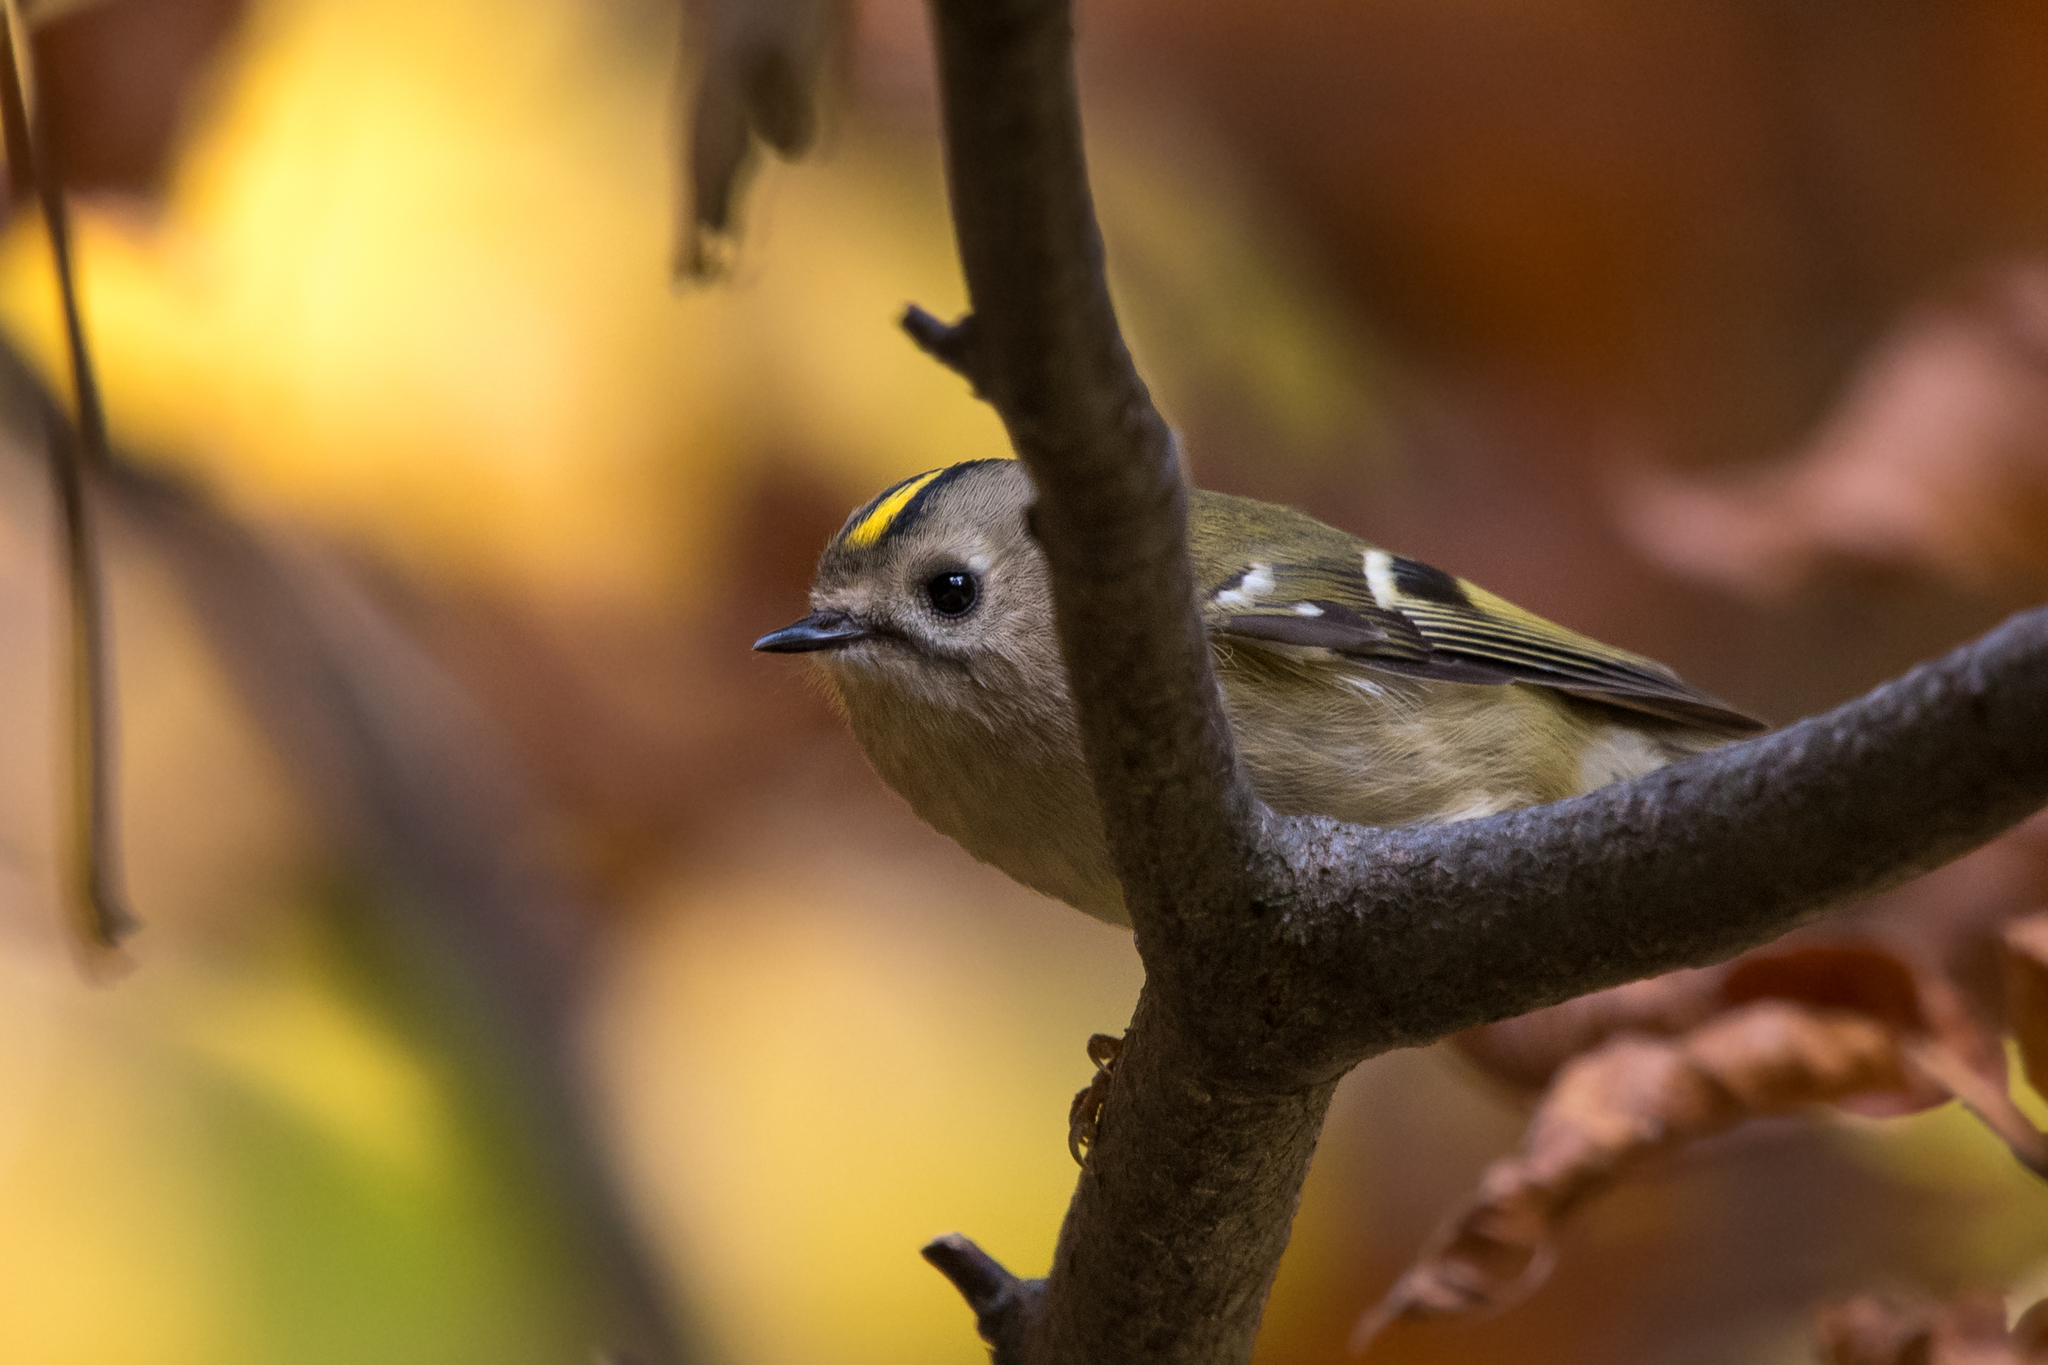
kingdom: Animalia
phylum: Chordata
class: Aves
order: Passeriformes
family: Regulidae
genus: Regulus
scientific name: Regulus regulus
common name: Goldcrest
